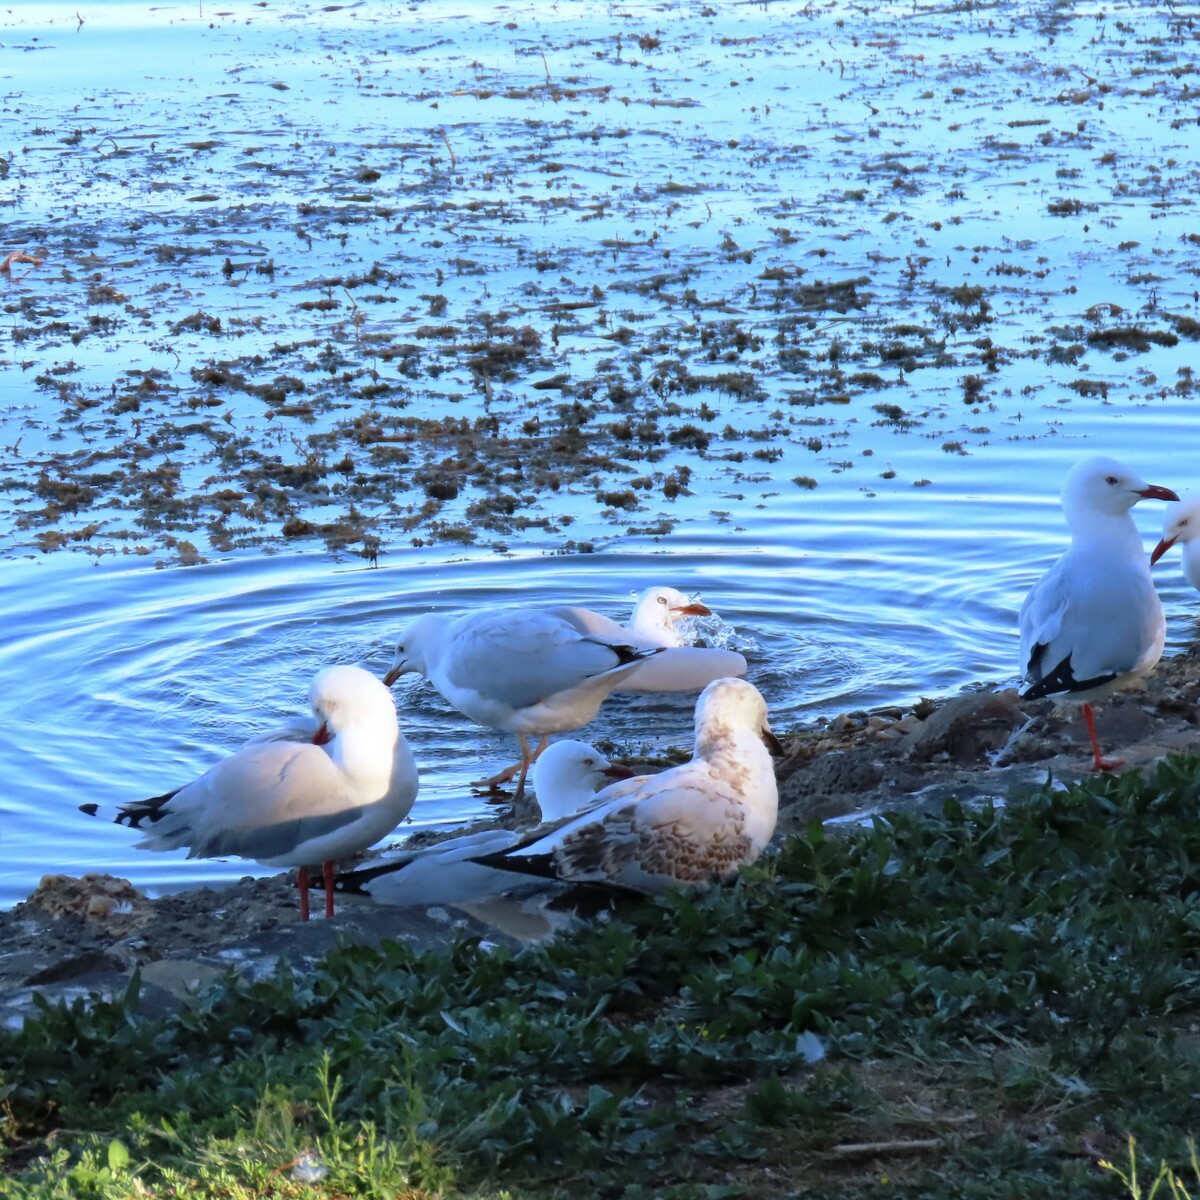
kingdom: Animalia
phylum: Chordata
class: Aves
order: Charadriiformes
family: Laridae
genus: Chroicocephalus
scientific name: Chroicocephalus novaehollandiae
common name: Silver gull
